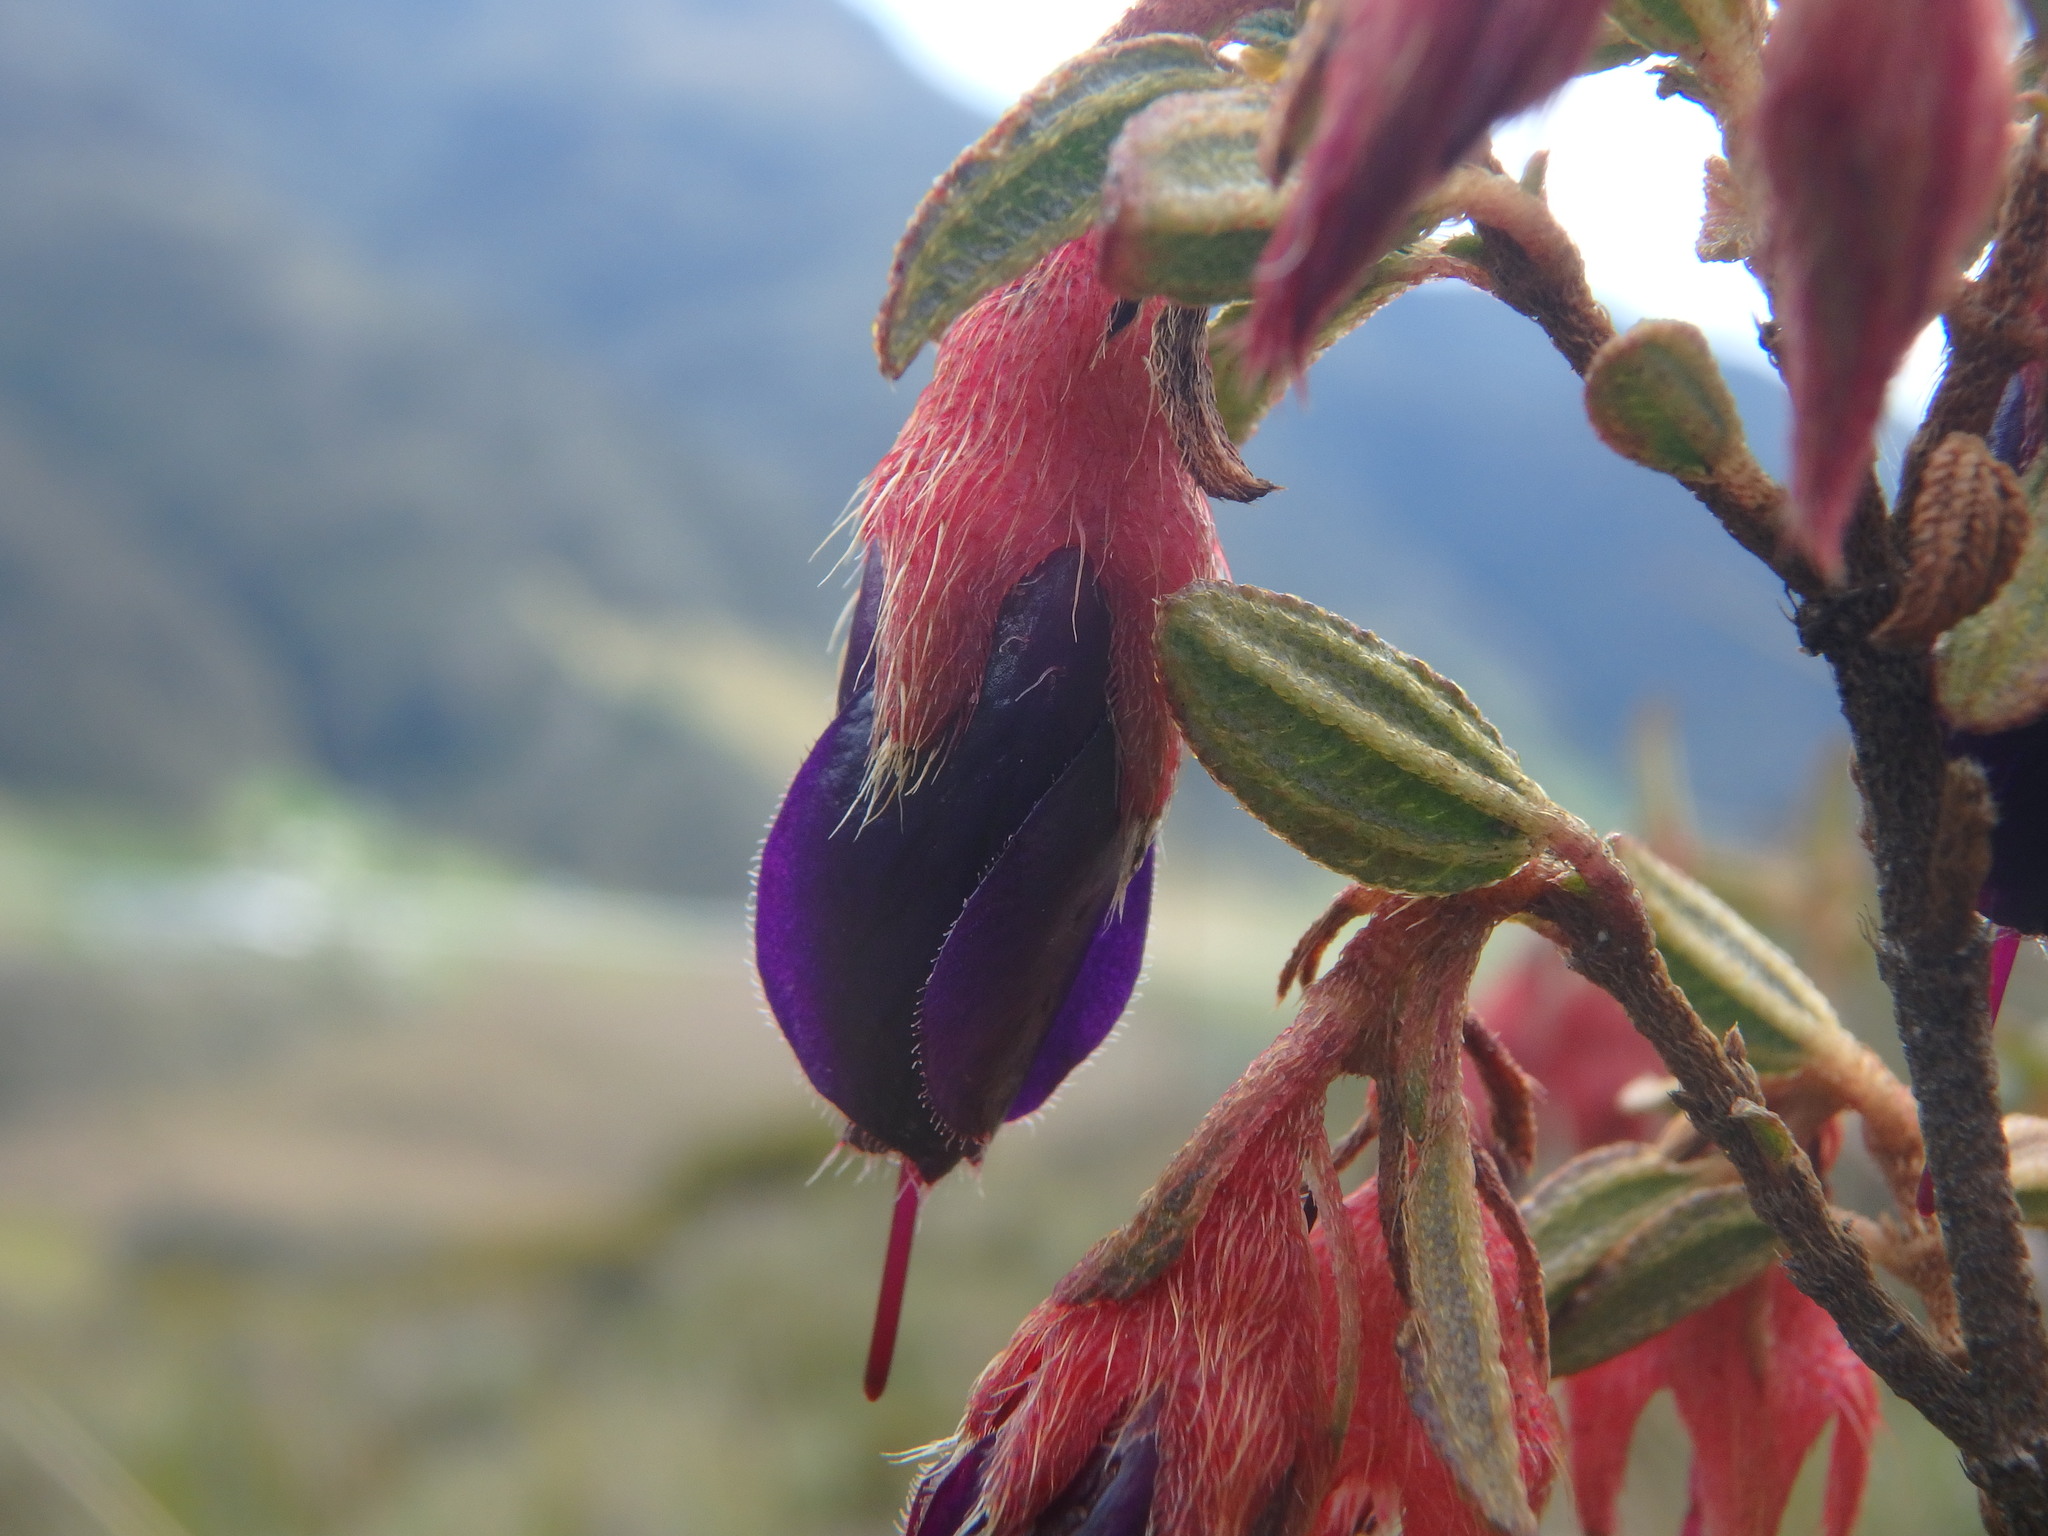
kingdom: Plantae
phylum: Tracheophyta
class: Magnoliopsida
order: Myrtales
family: Melastomataceae
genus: Brachyotum
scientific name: Brachyotum strigosum
